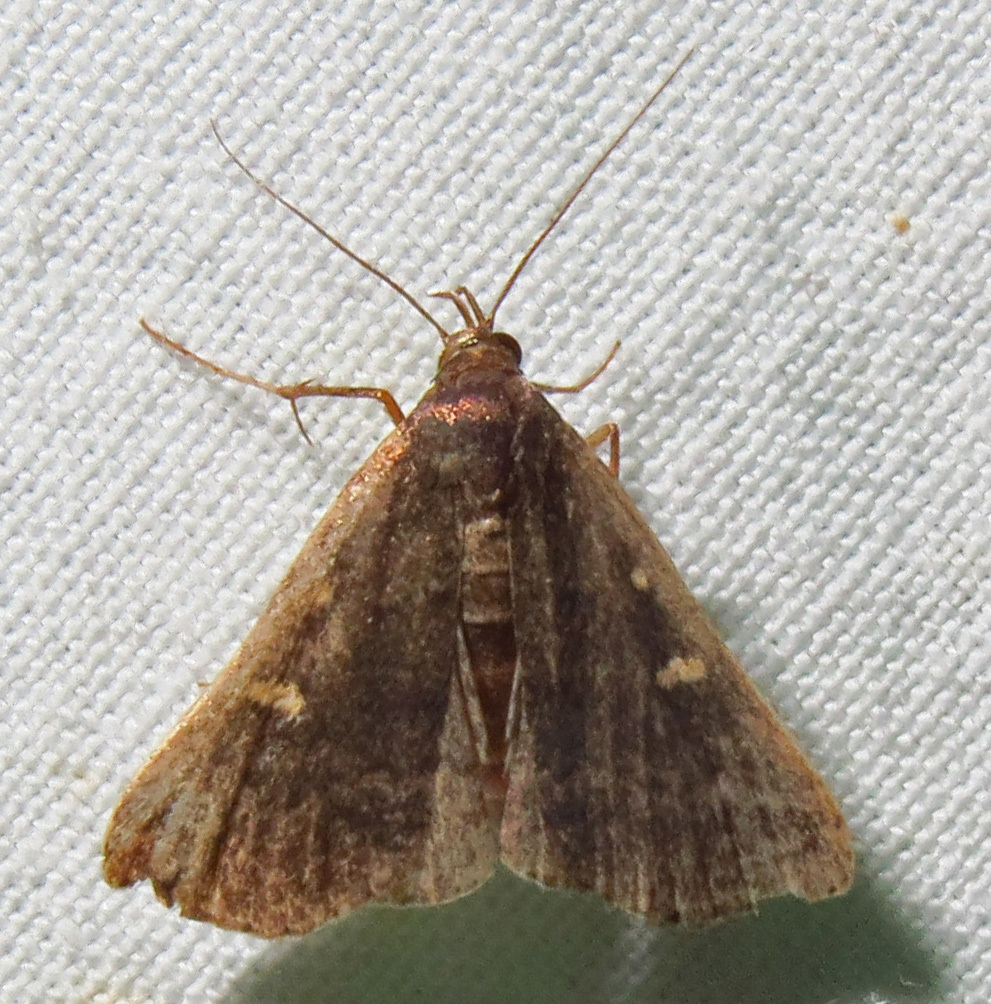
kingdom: Animalia
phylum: Arthropoda
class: Insecta
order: Lepidoptera
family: Erebidae
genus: Tetanolita
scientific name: Tetanolita mynesalis
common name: Smoky tetanolita moth
